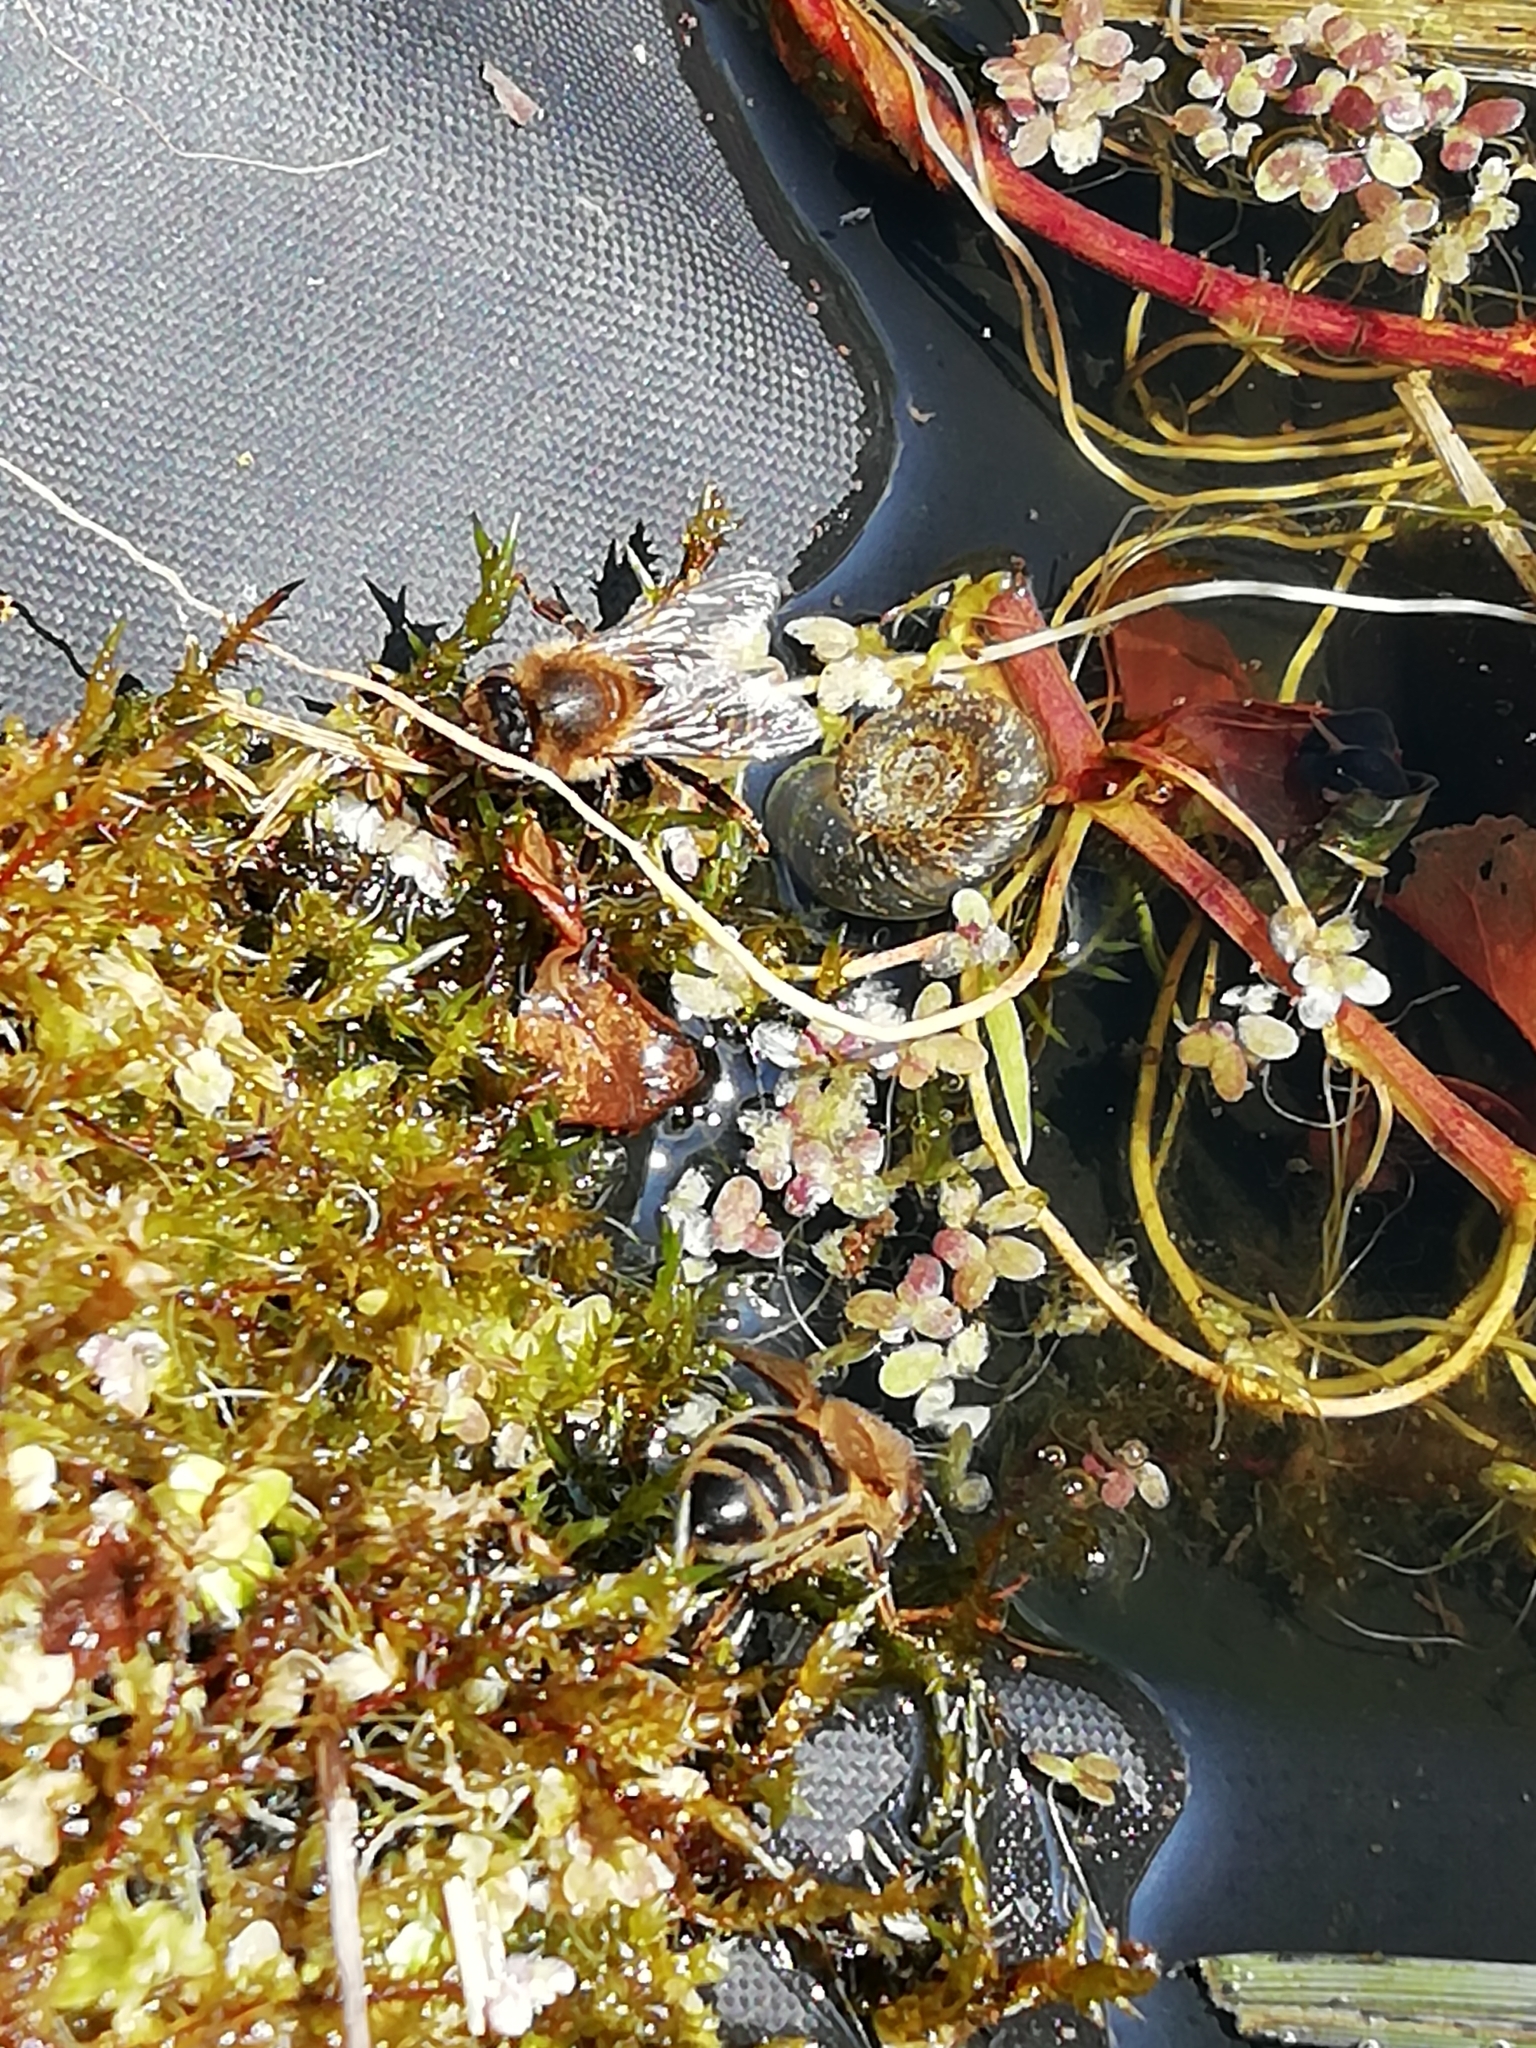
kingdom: Animalia
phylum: Arthropoda
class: Insecta
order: Hymenoptera
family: Apidae
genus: Apis
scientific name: Apis mellifera
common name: Honey bee
